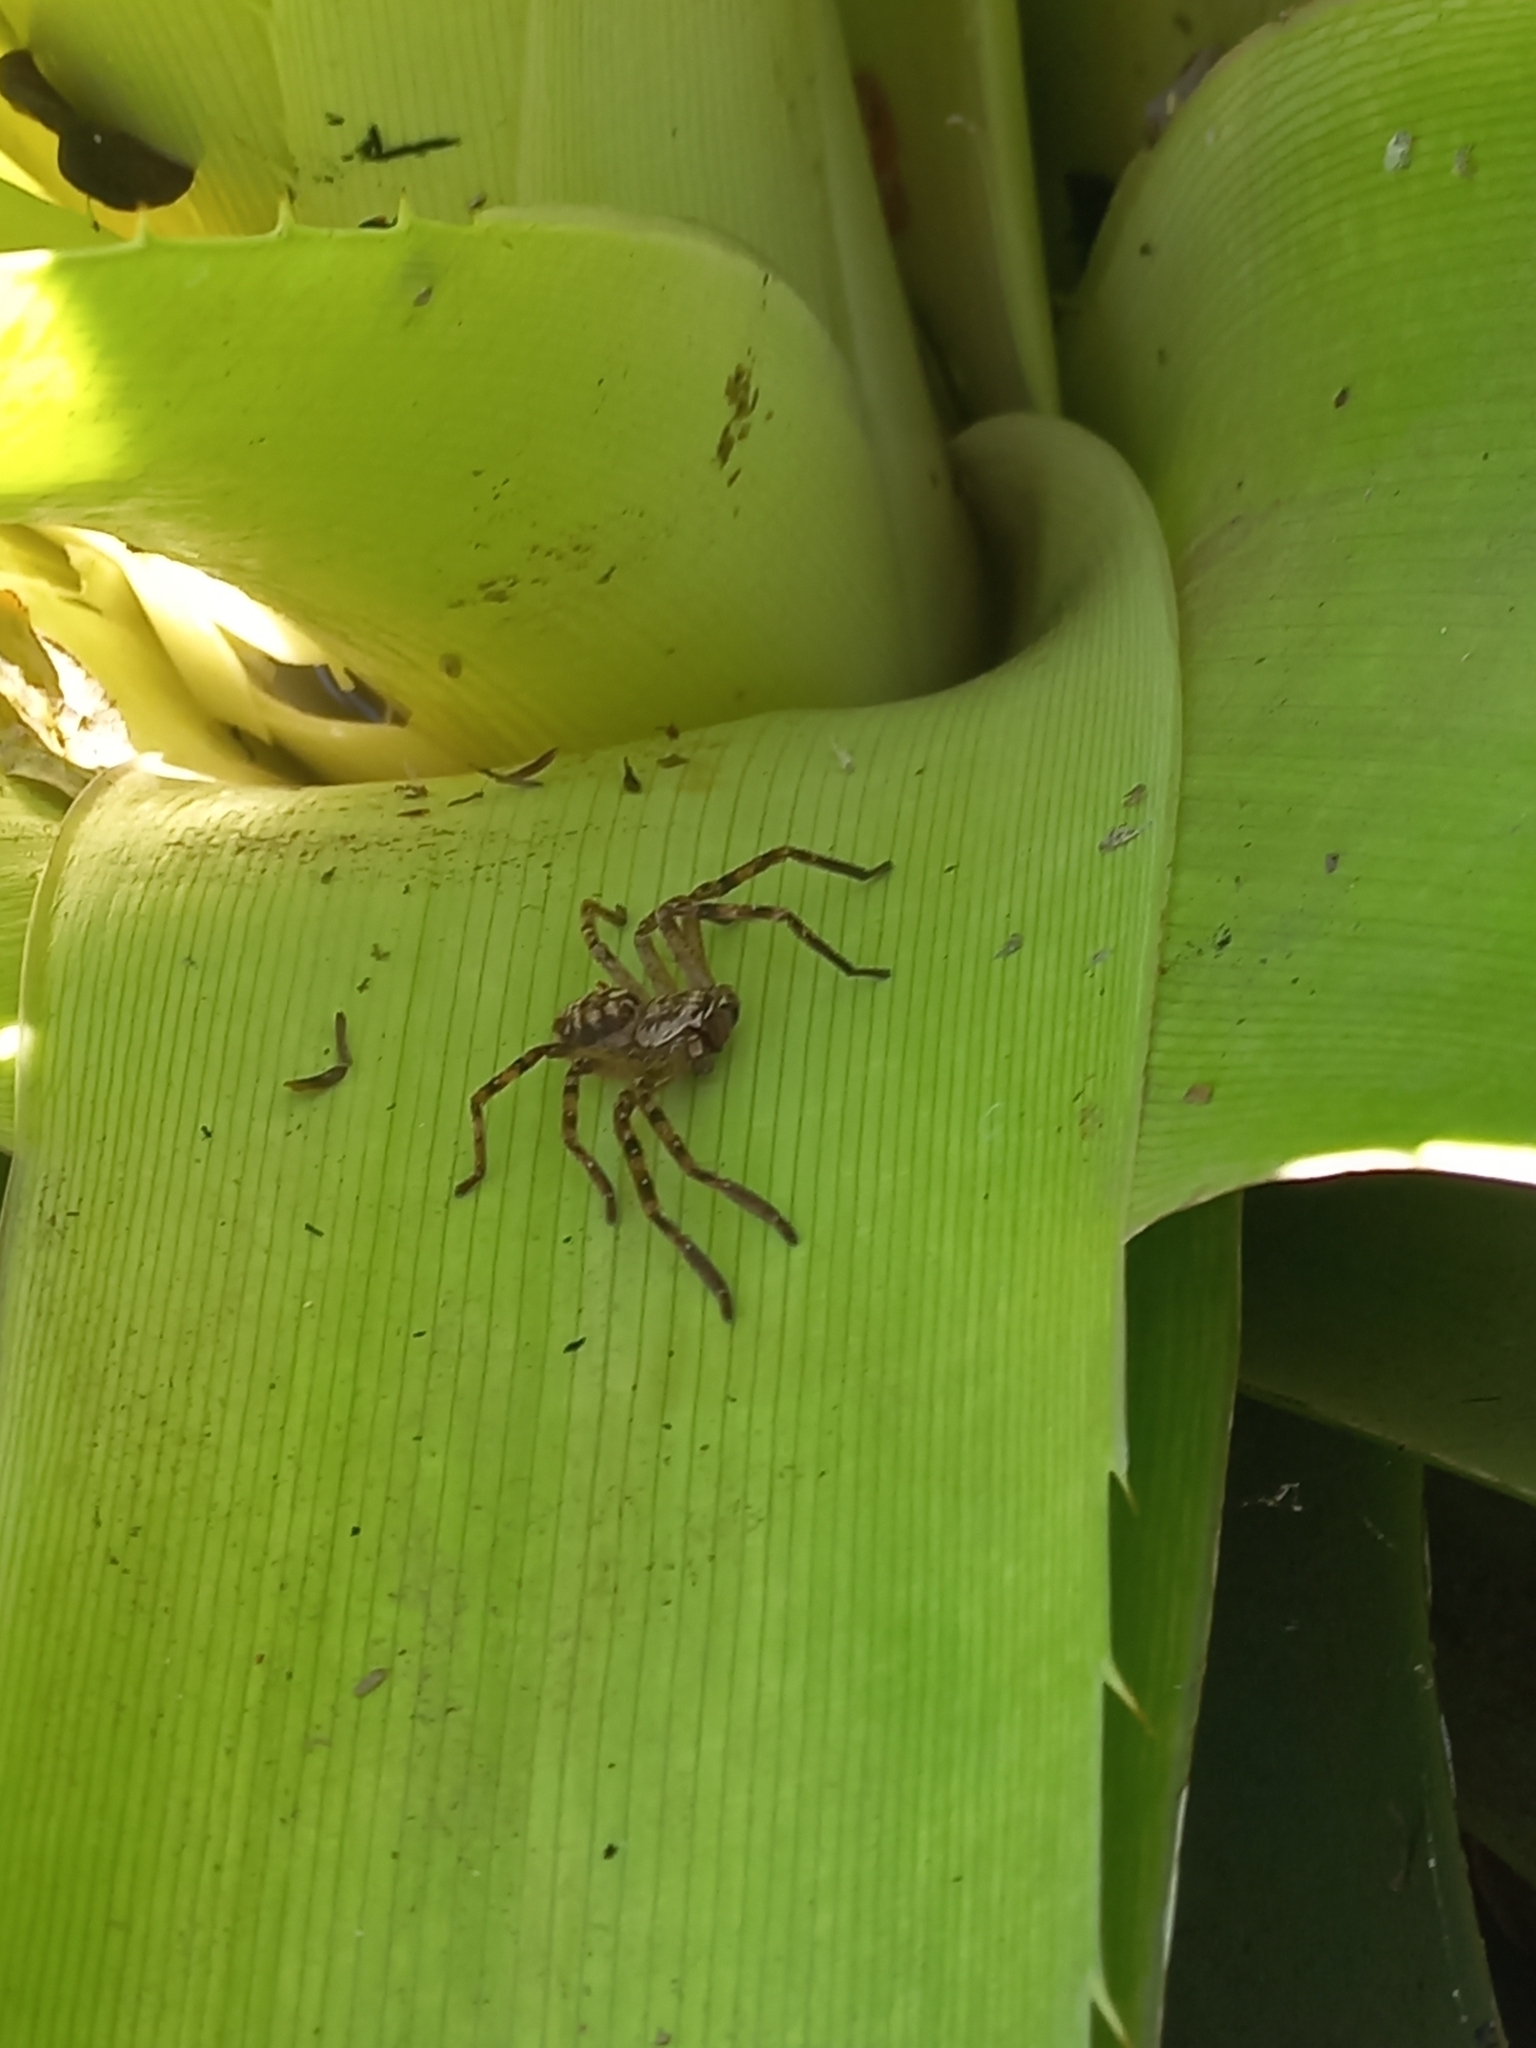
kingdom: Animalia
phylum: Arthropoda
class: Arachnida
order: Araneae
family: Sparassidae
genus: Polybetes
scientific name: Polybetes rapidus
